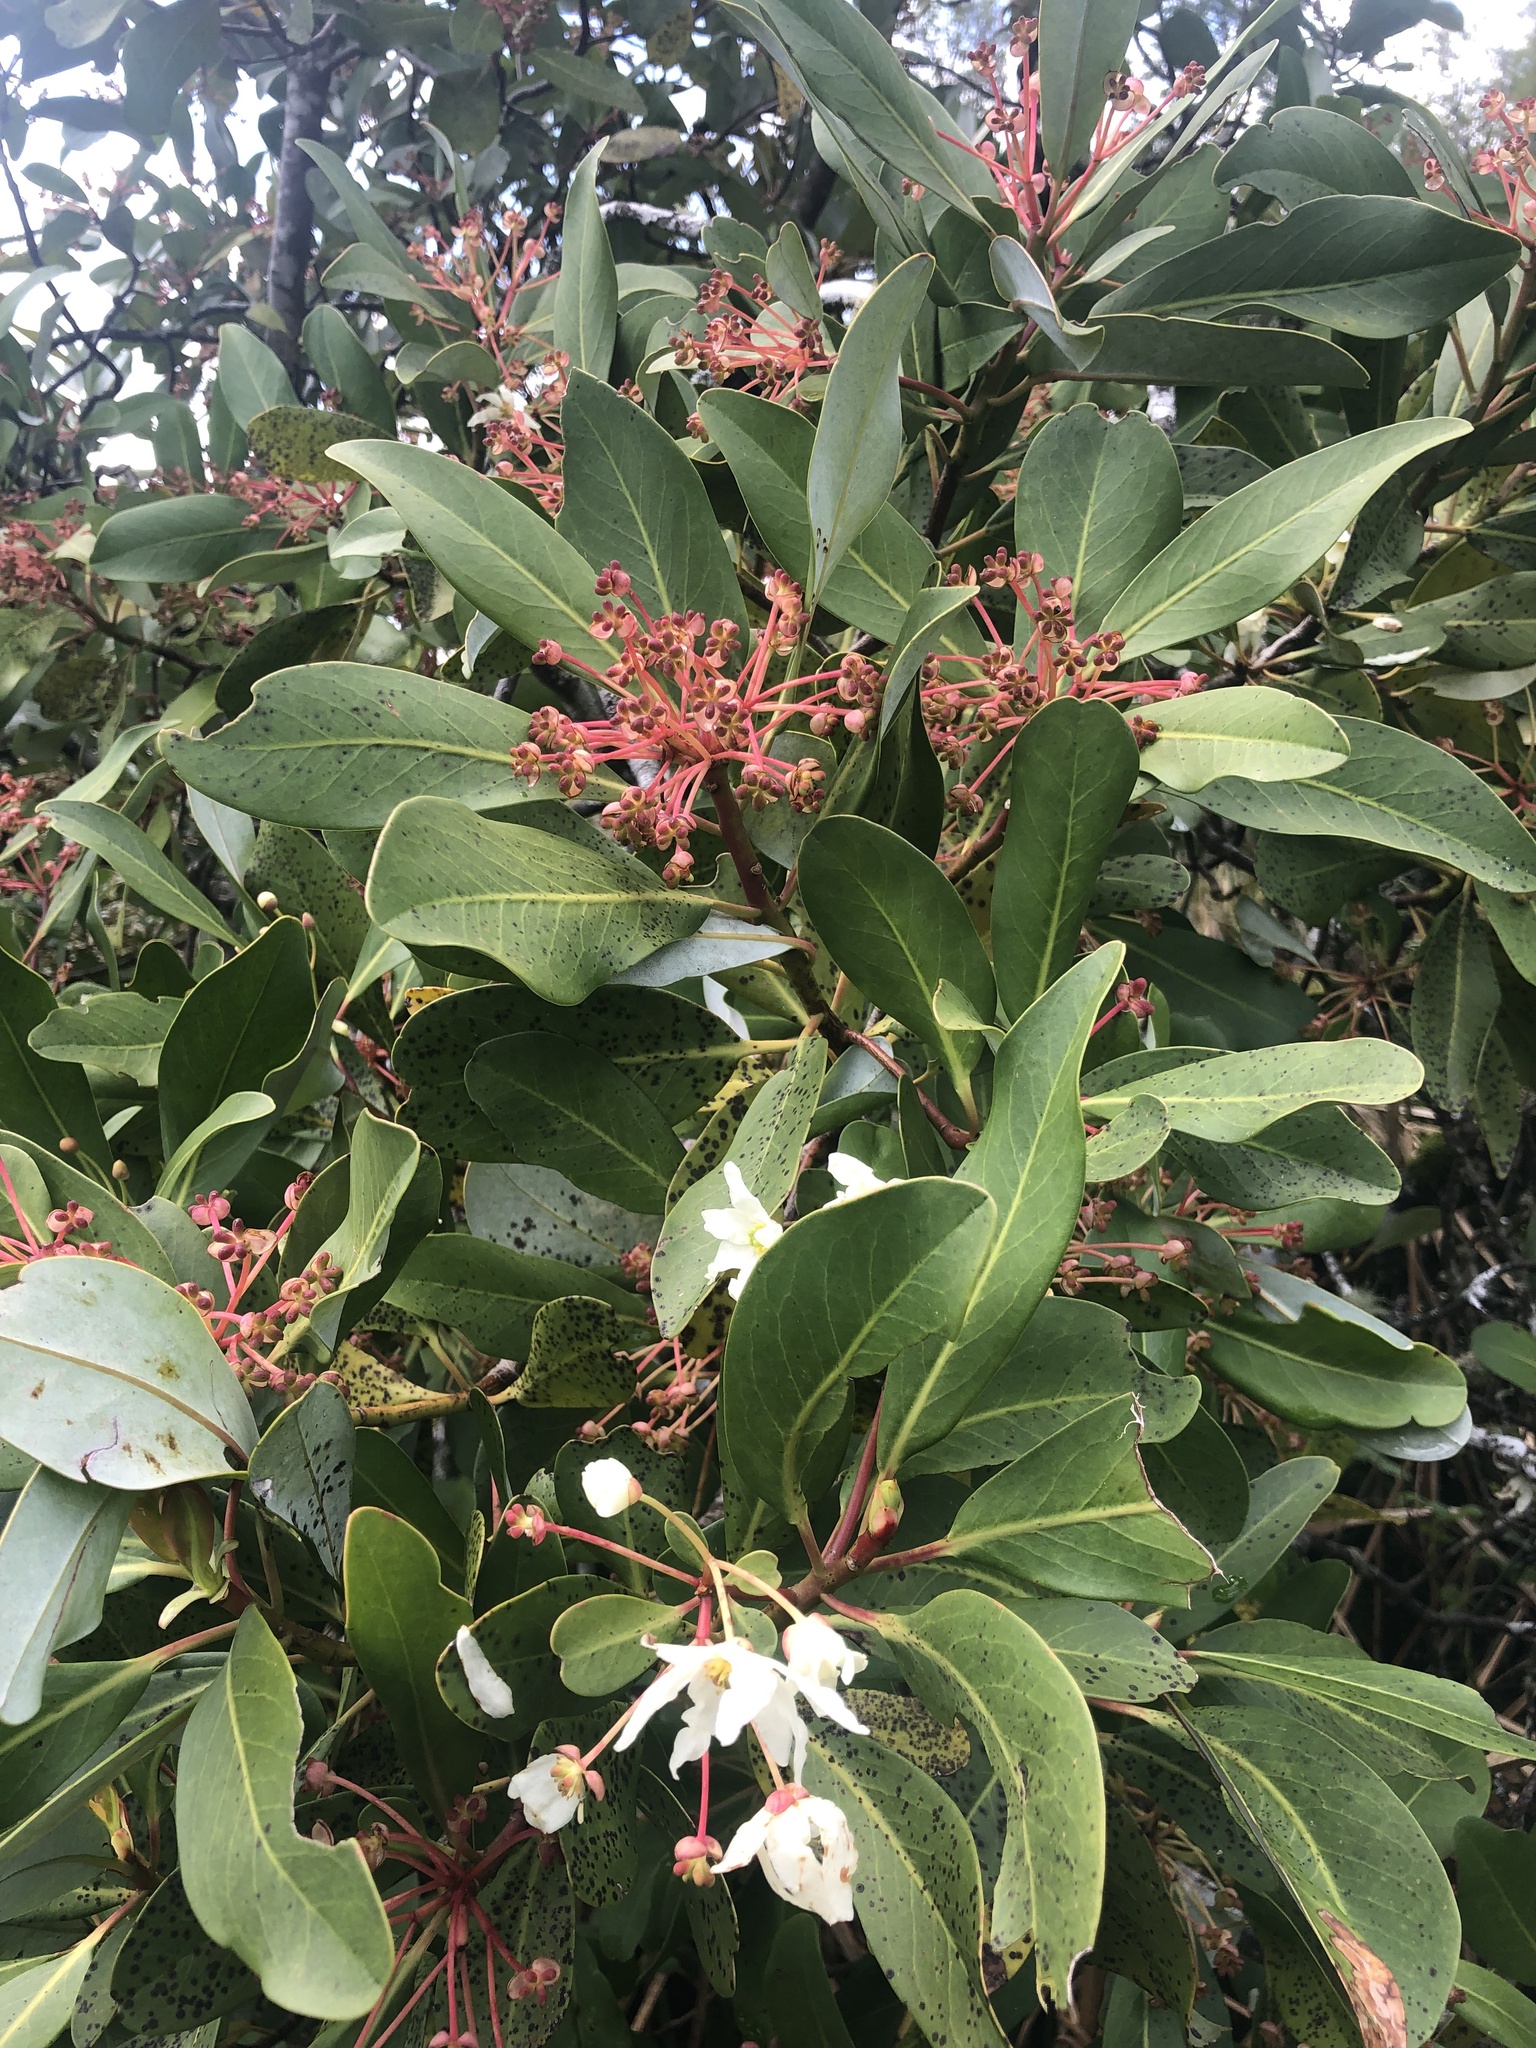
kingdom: Plantae
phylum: Tracheophyta
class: Magnoliopsida
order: Canellales
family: Winteraceae
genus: Drimys
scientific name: Drimys winteri
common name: Winter's-bark
